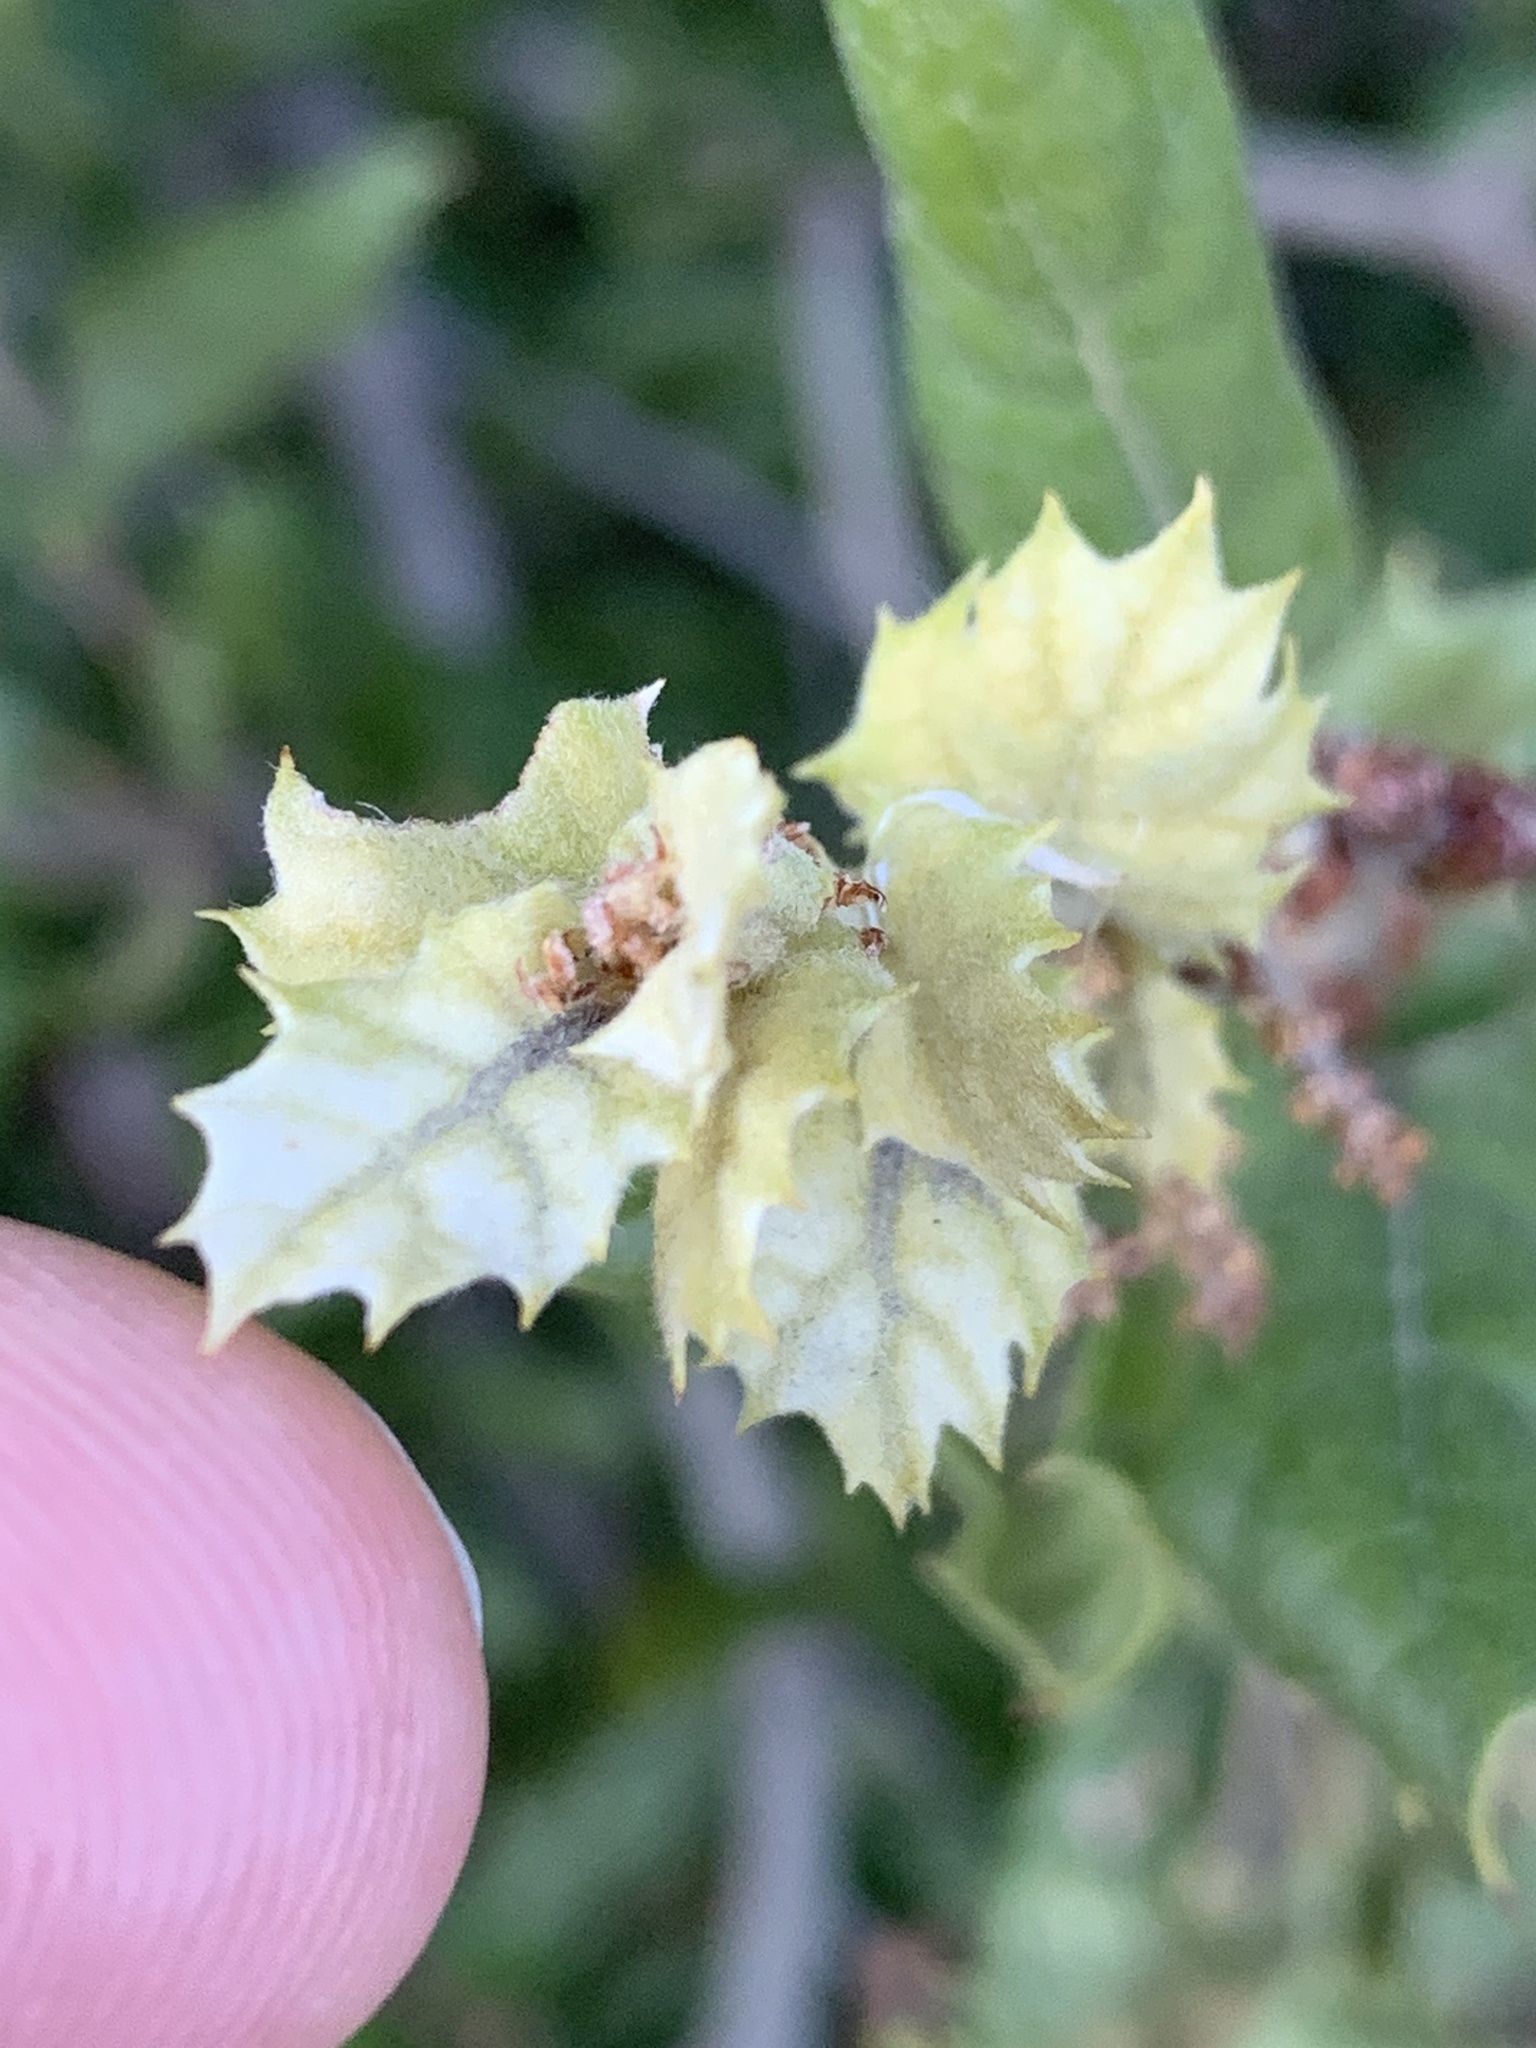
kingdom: Plantae
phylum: Tracheophyta
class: Magnoliopsida
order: Fagales
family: Fagaceae
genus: Quercus
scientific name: Quercus agrifolia
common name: California live oak
